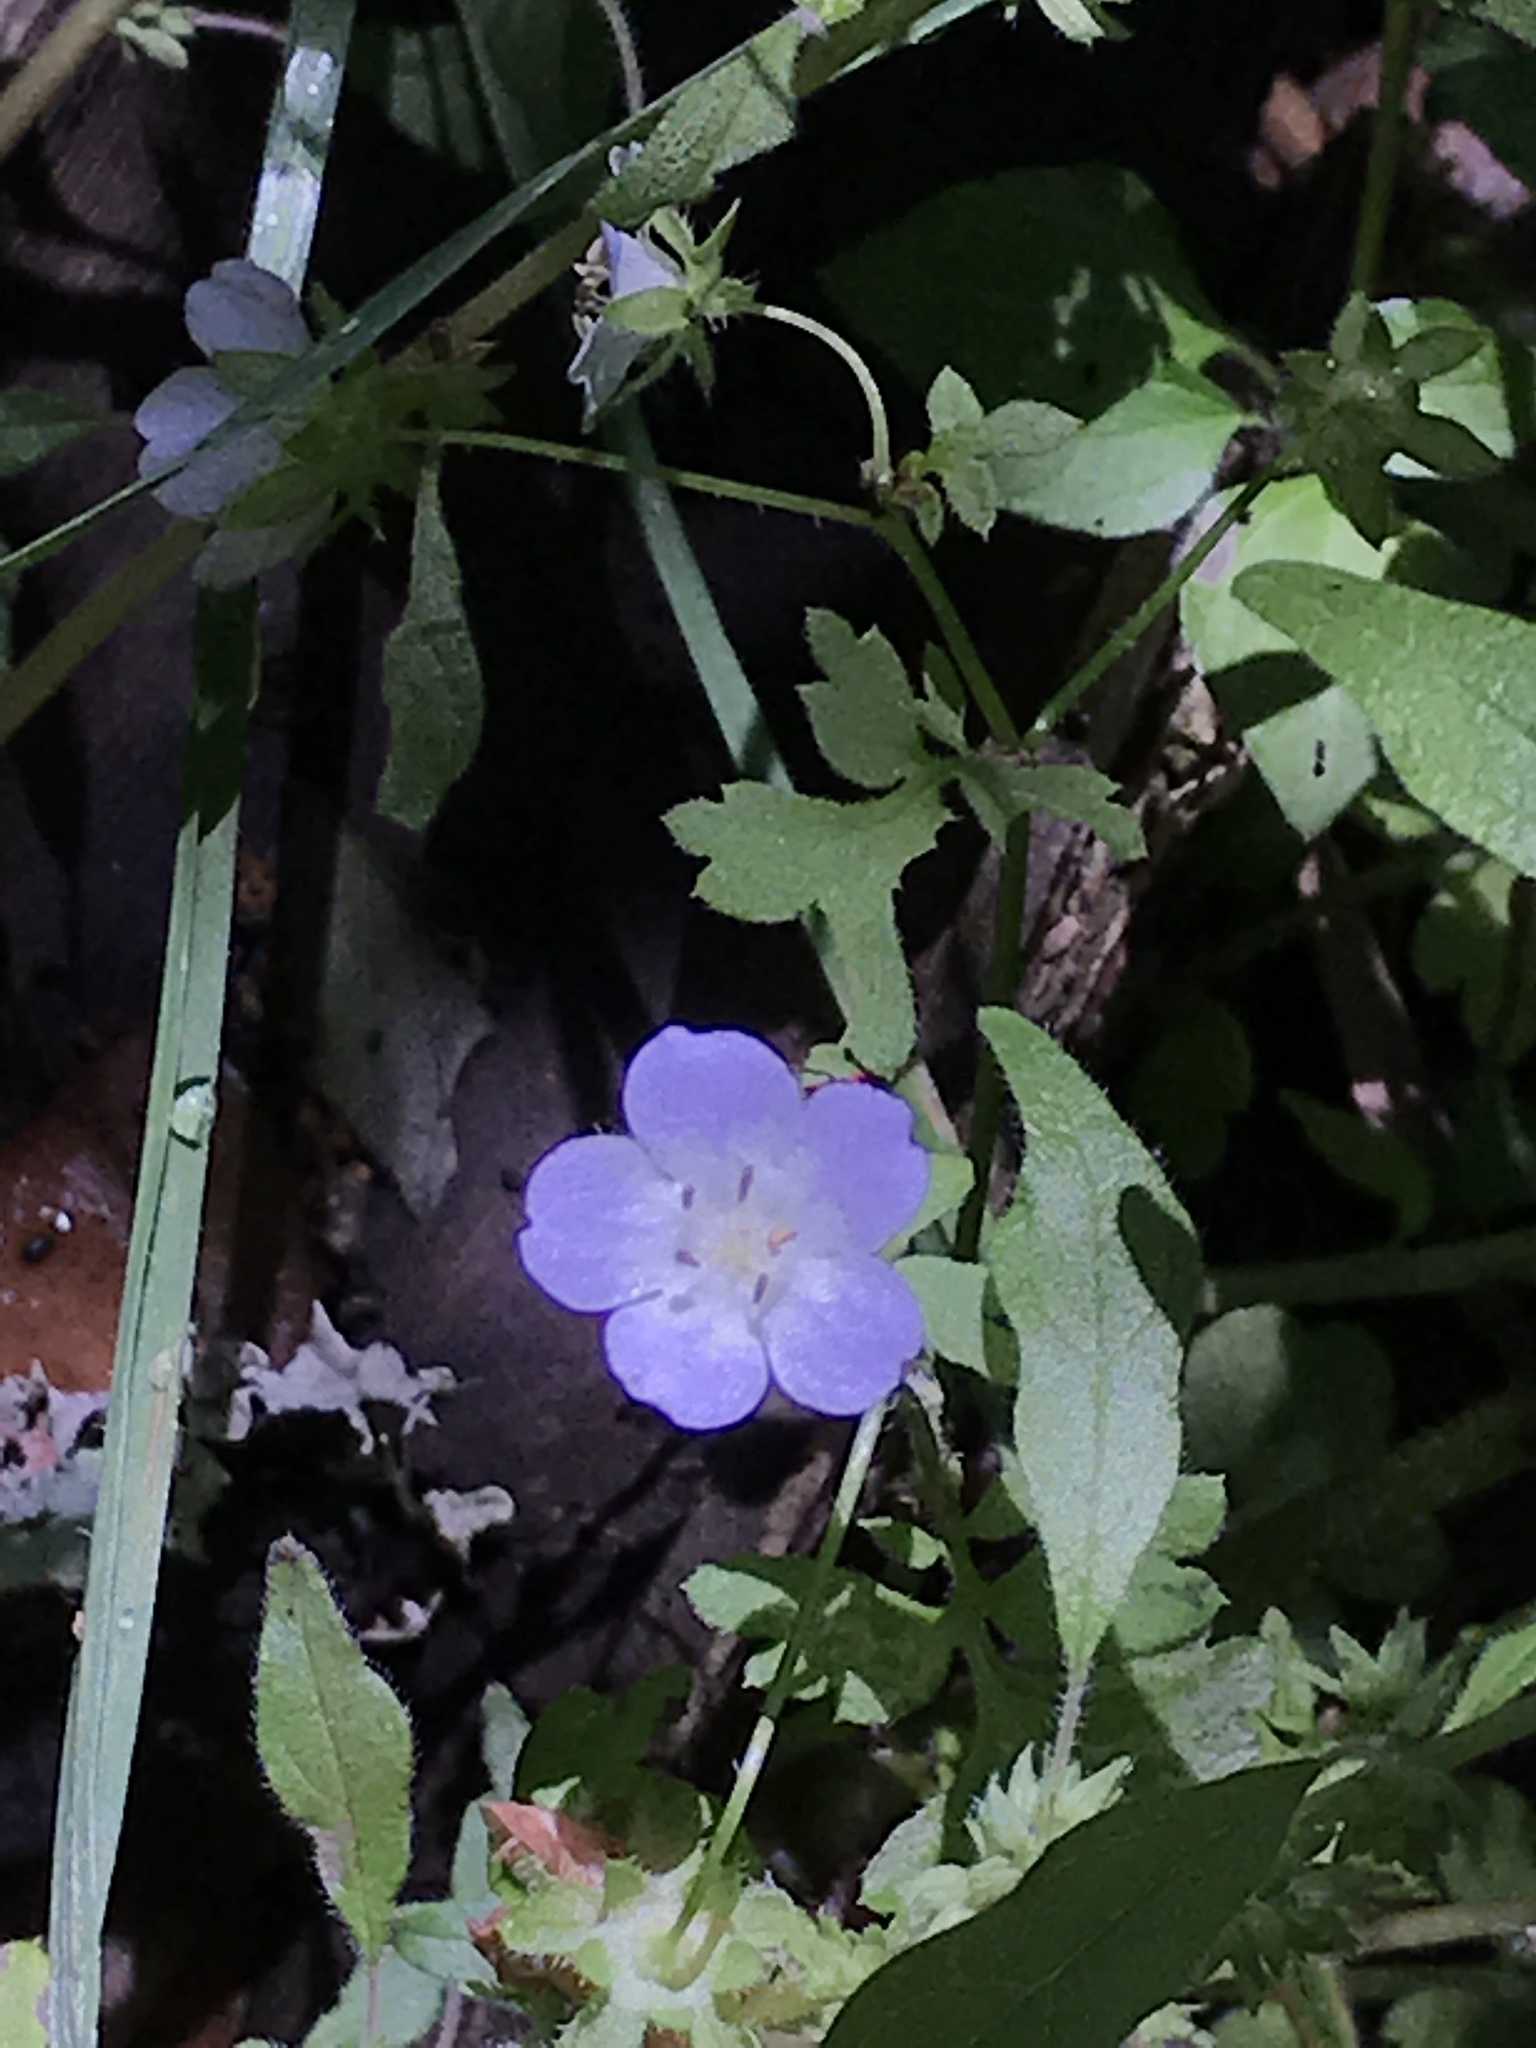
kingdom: Plantae
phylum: Tracheophyta
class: Magnoliopsida
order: Boraginales
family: Hydrophyllaceae
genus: Nemophila
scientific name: Nemophila phacelioides
